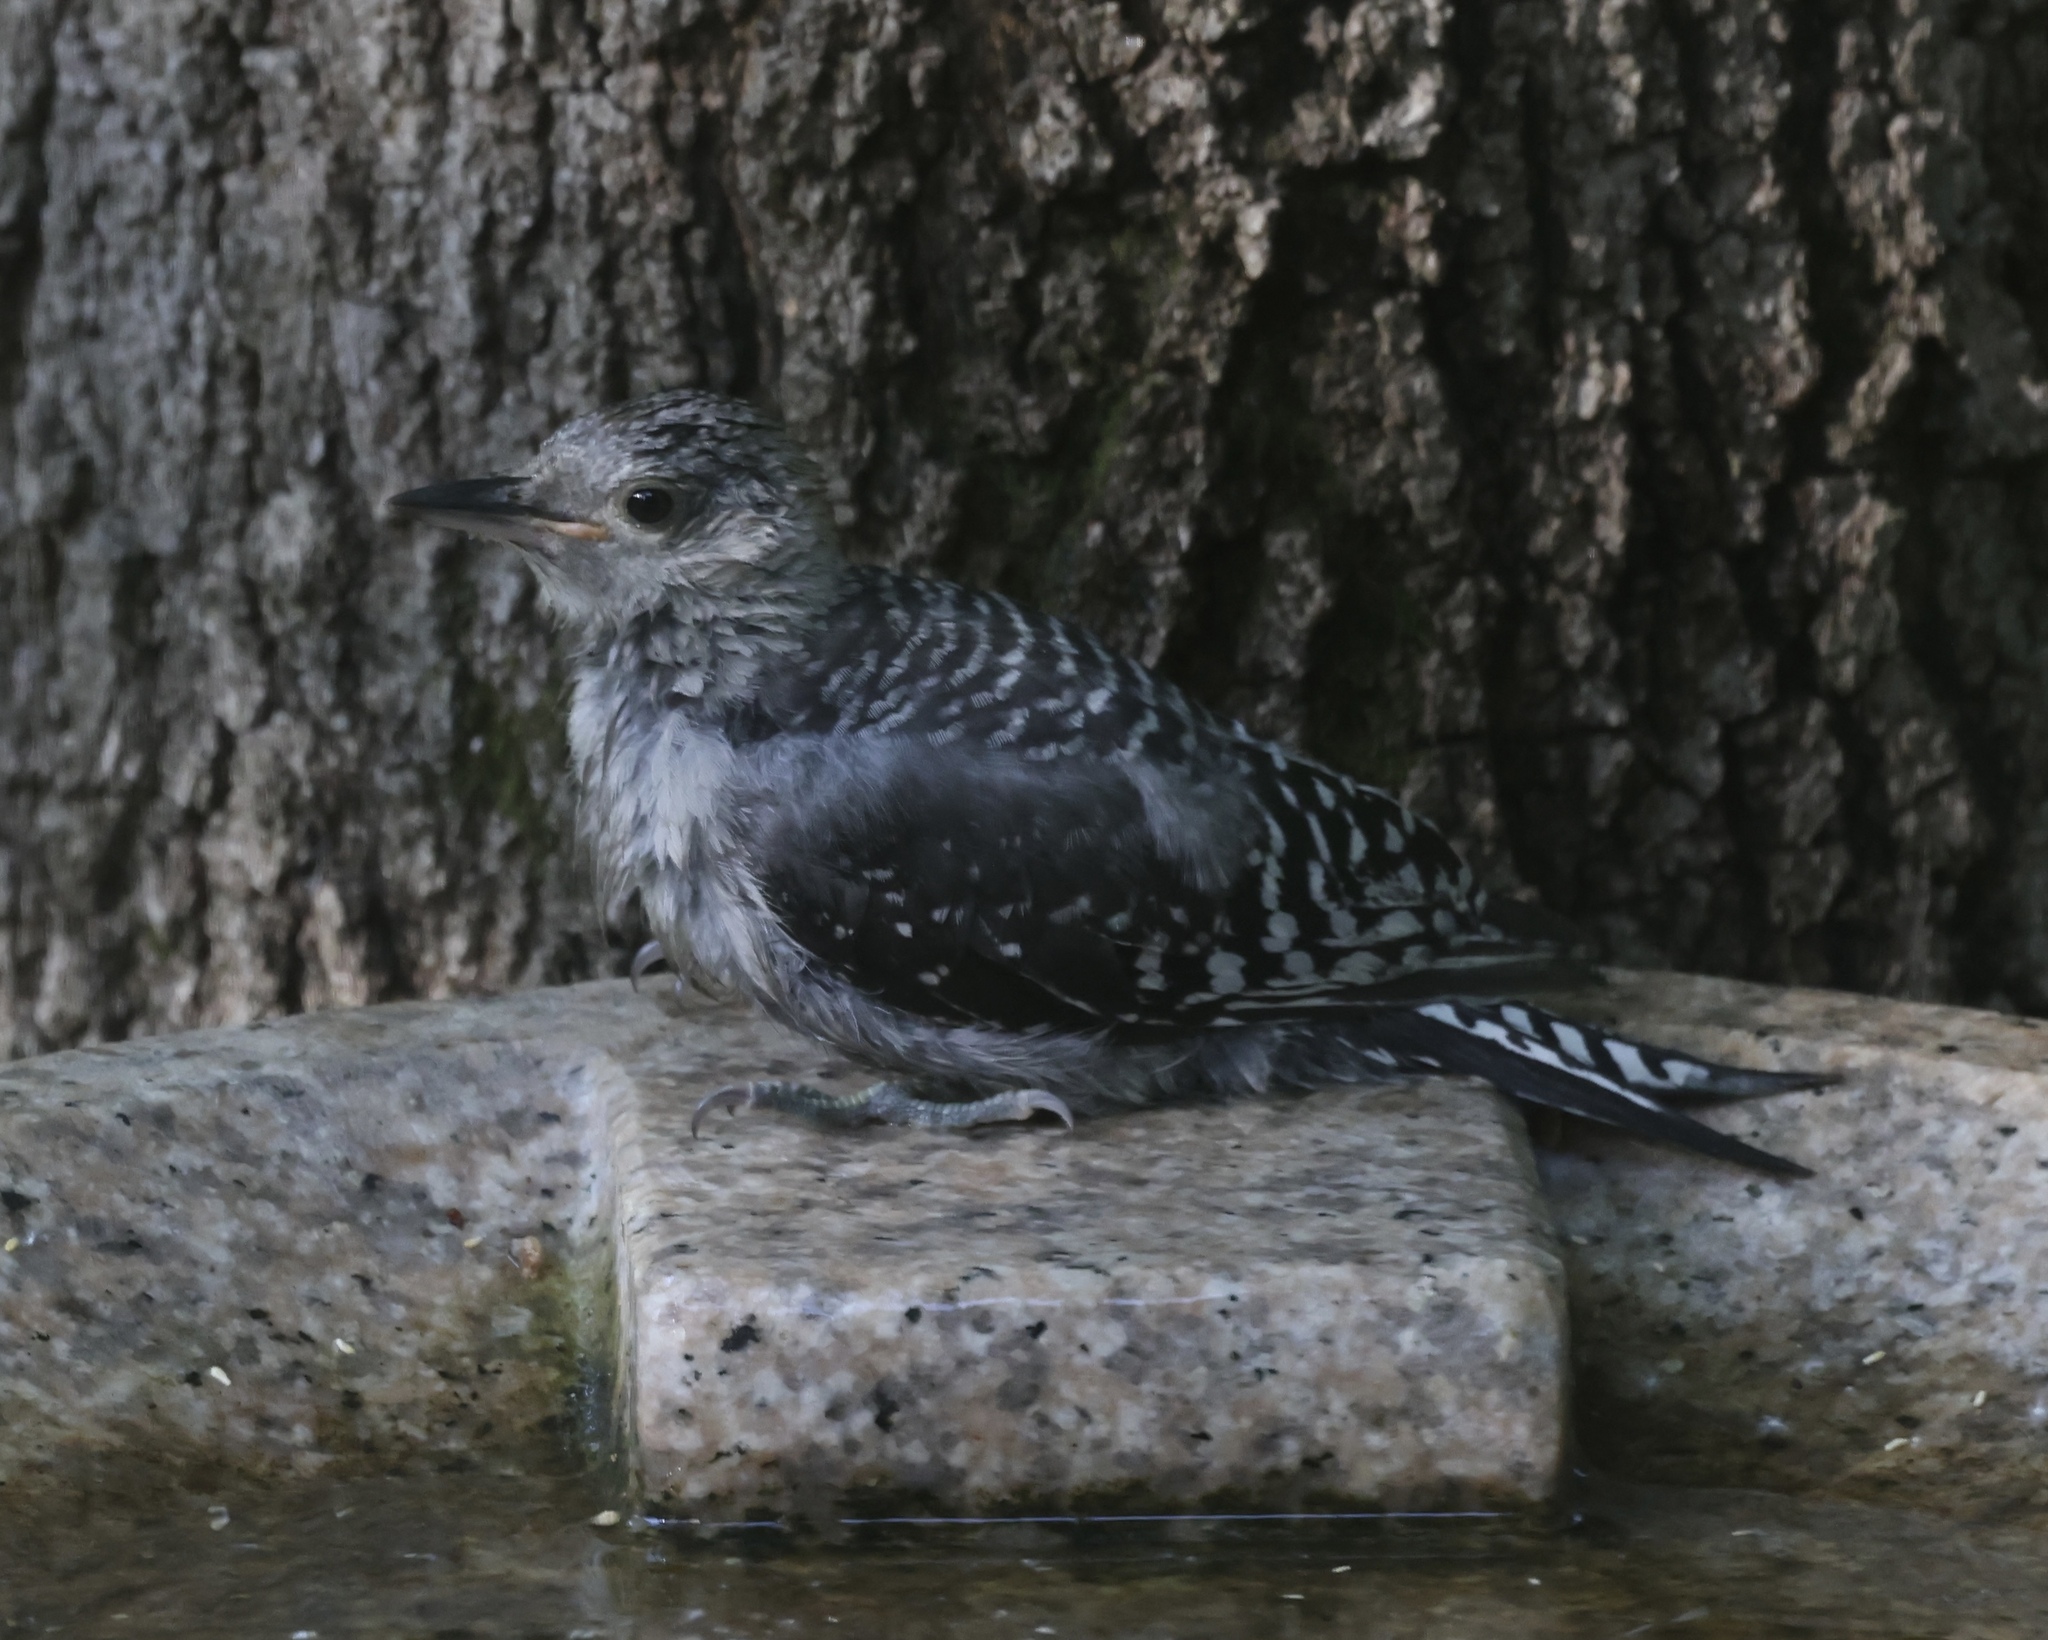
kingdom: Animalia
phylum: Chordata
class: Aves
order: Piciformes
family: Picidae
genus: Melanerpes
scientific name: Melanerpes carolinus
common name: Red-bellied woodpecker
